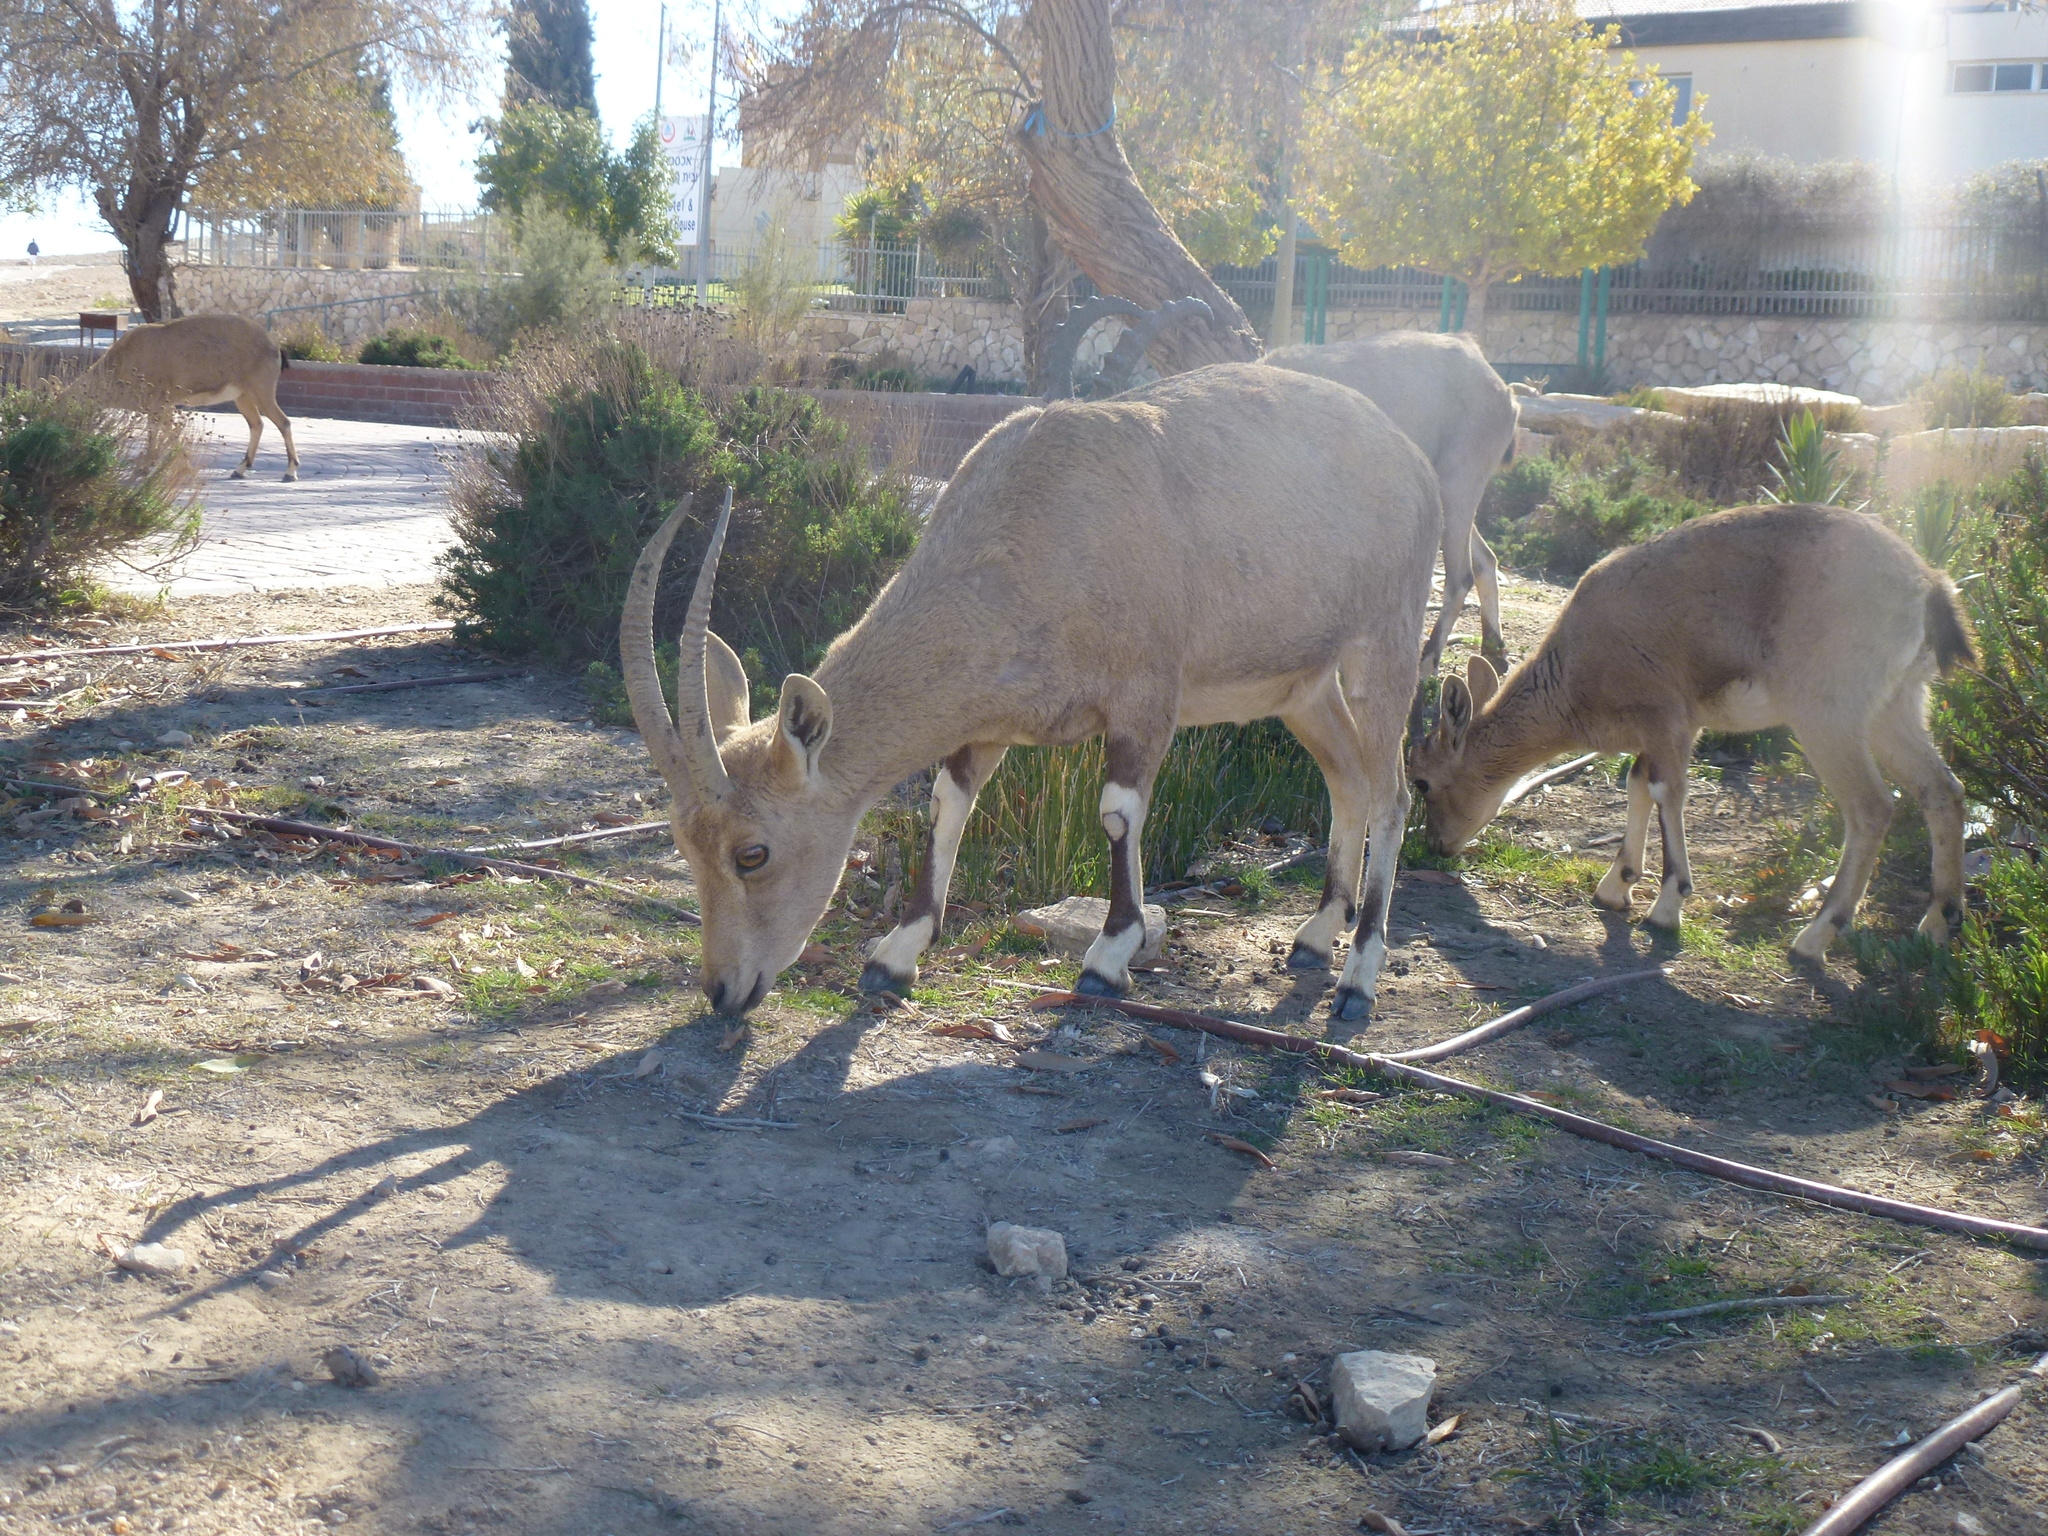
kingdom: Animalia
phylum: Chordata
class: Mammalia
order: Artiodactyla
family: Bovidae
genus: Capra
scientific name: Capra nubiana
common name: Nubian ibex
